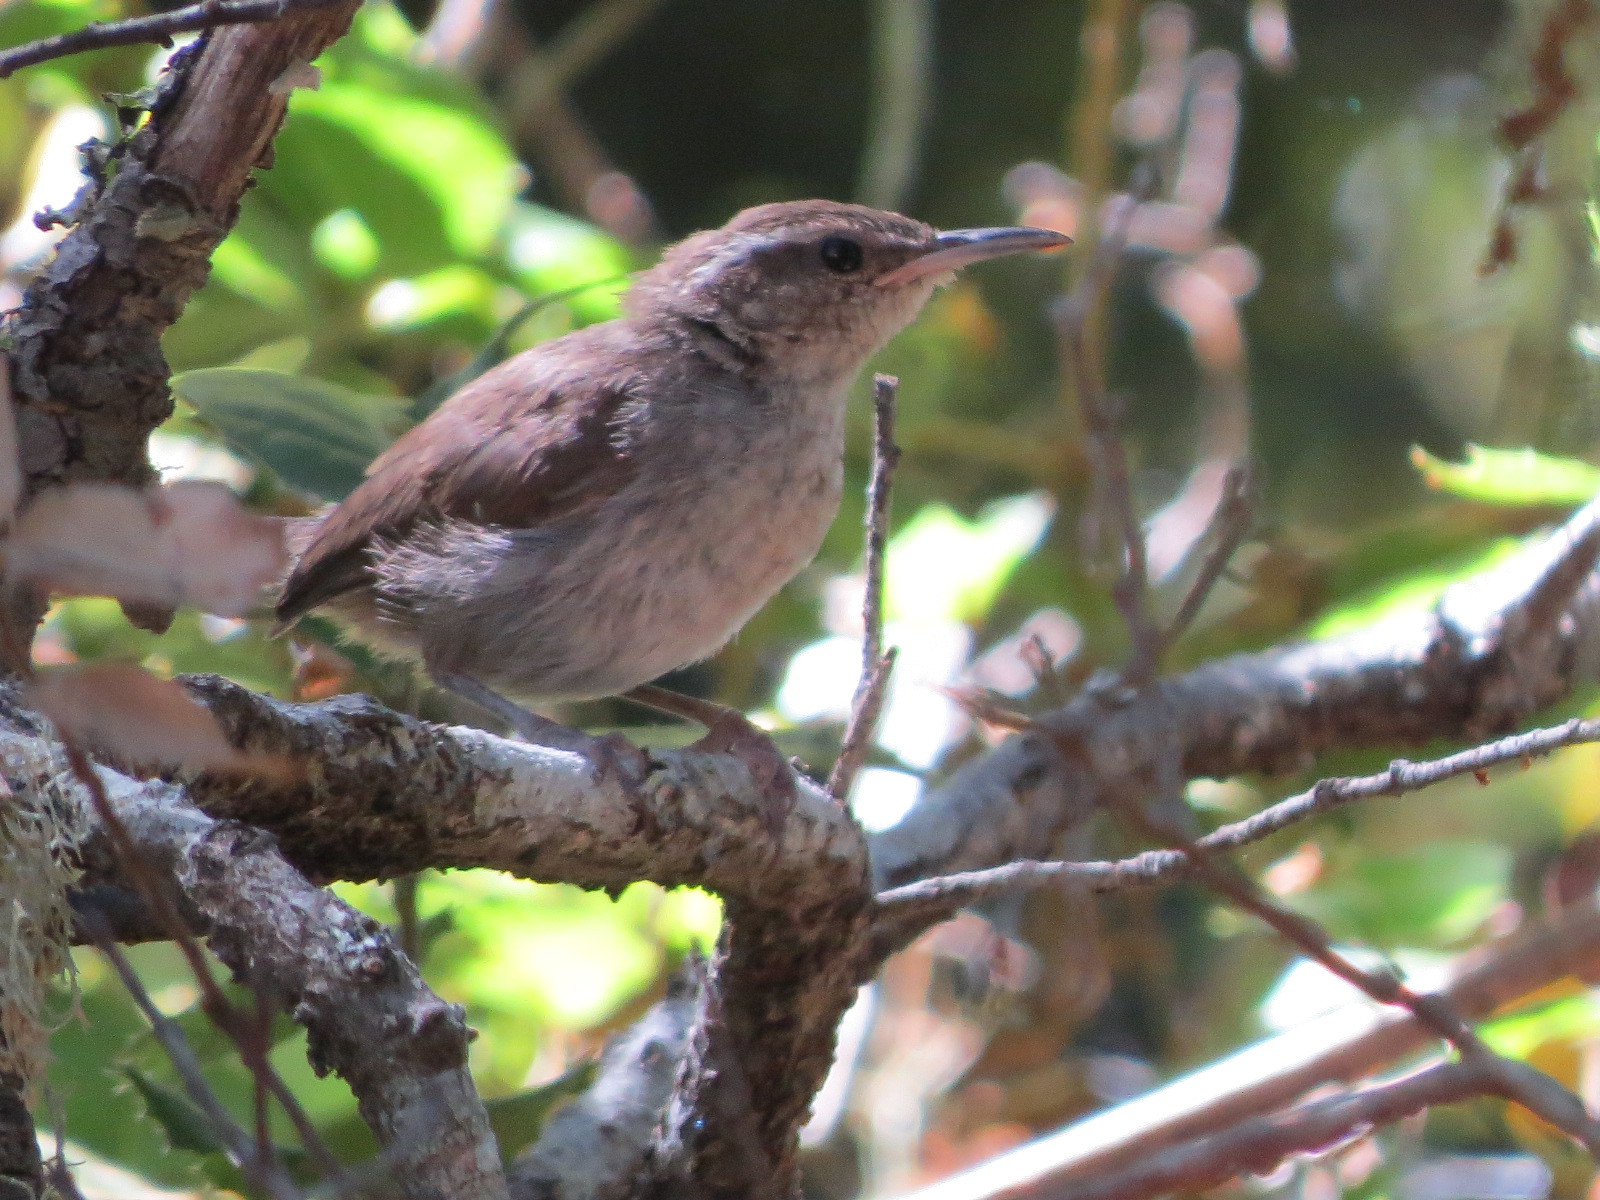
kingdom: Animalia
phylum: Chordata
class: Aves
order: Passeriformes
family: Troglodytidae
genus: Thryomanes
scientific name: Thryomanes bewickii
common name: Bewick's wren
